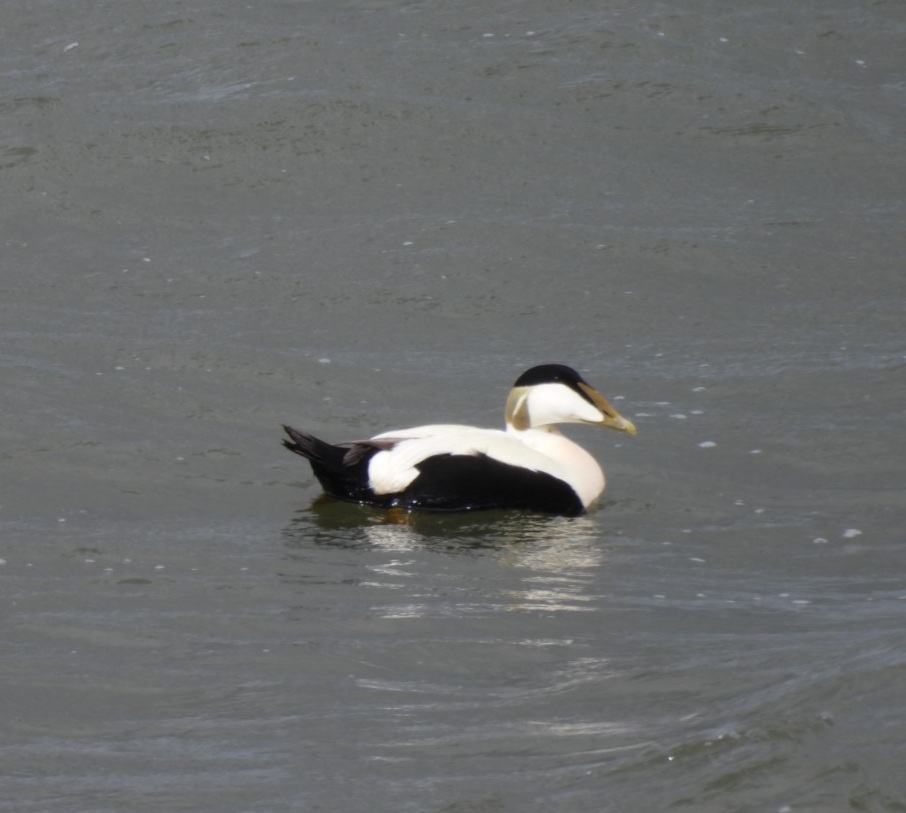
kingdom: Animalia
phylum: Chordata
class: Aves
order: Anseriformes
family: Anatidae
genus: Somateria
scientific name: Somateria mollissima
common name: Common eider
